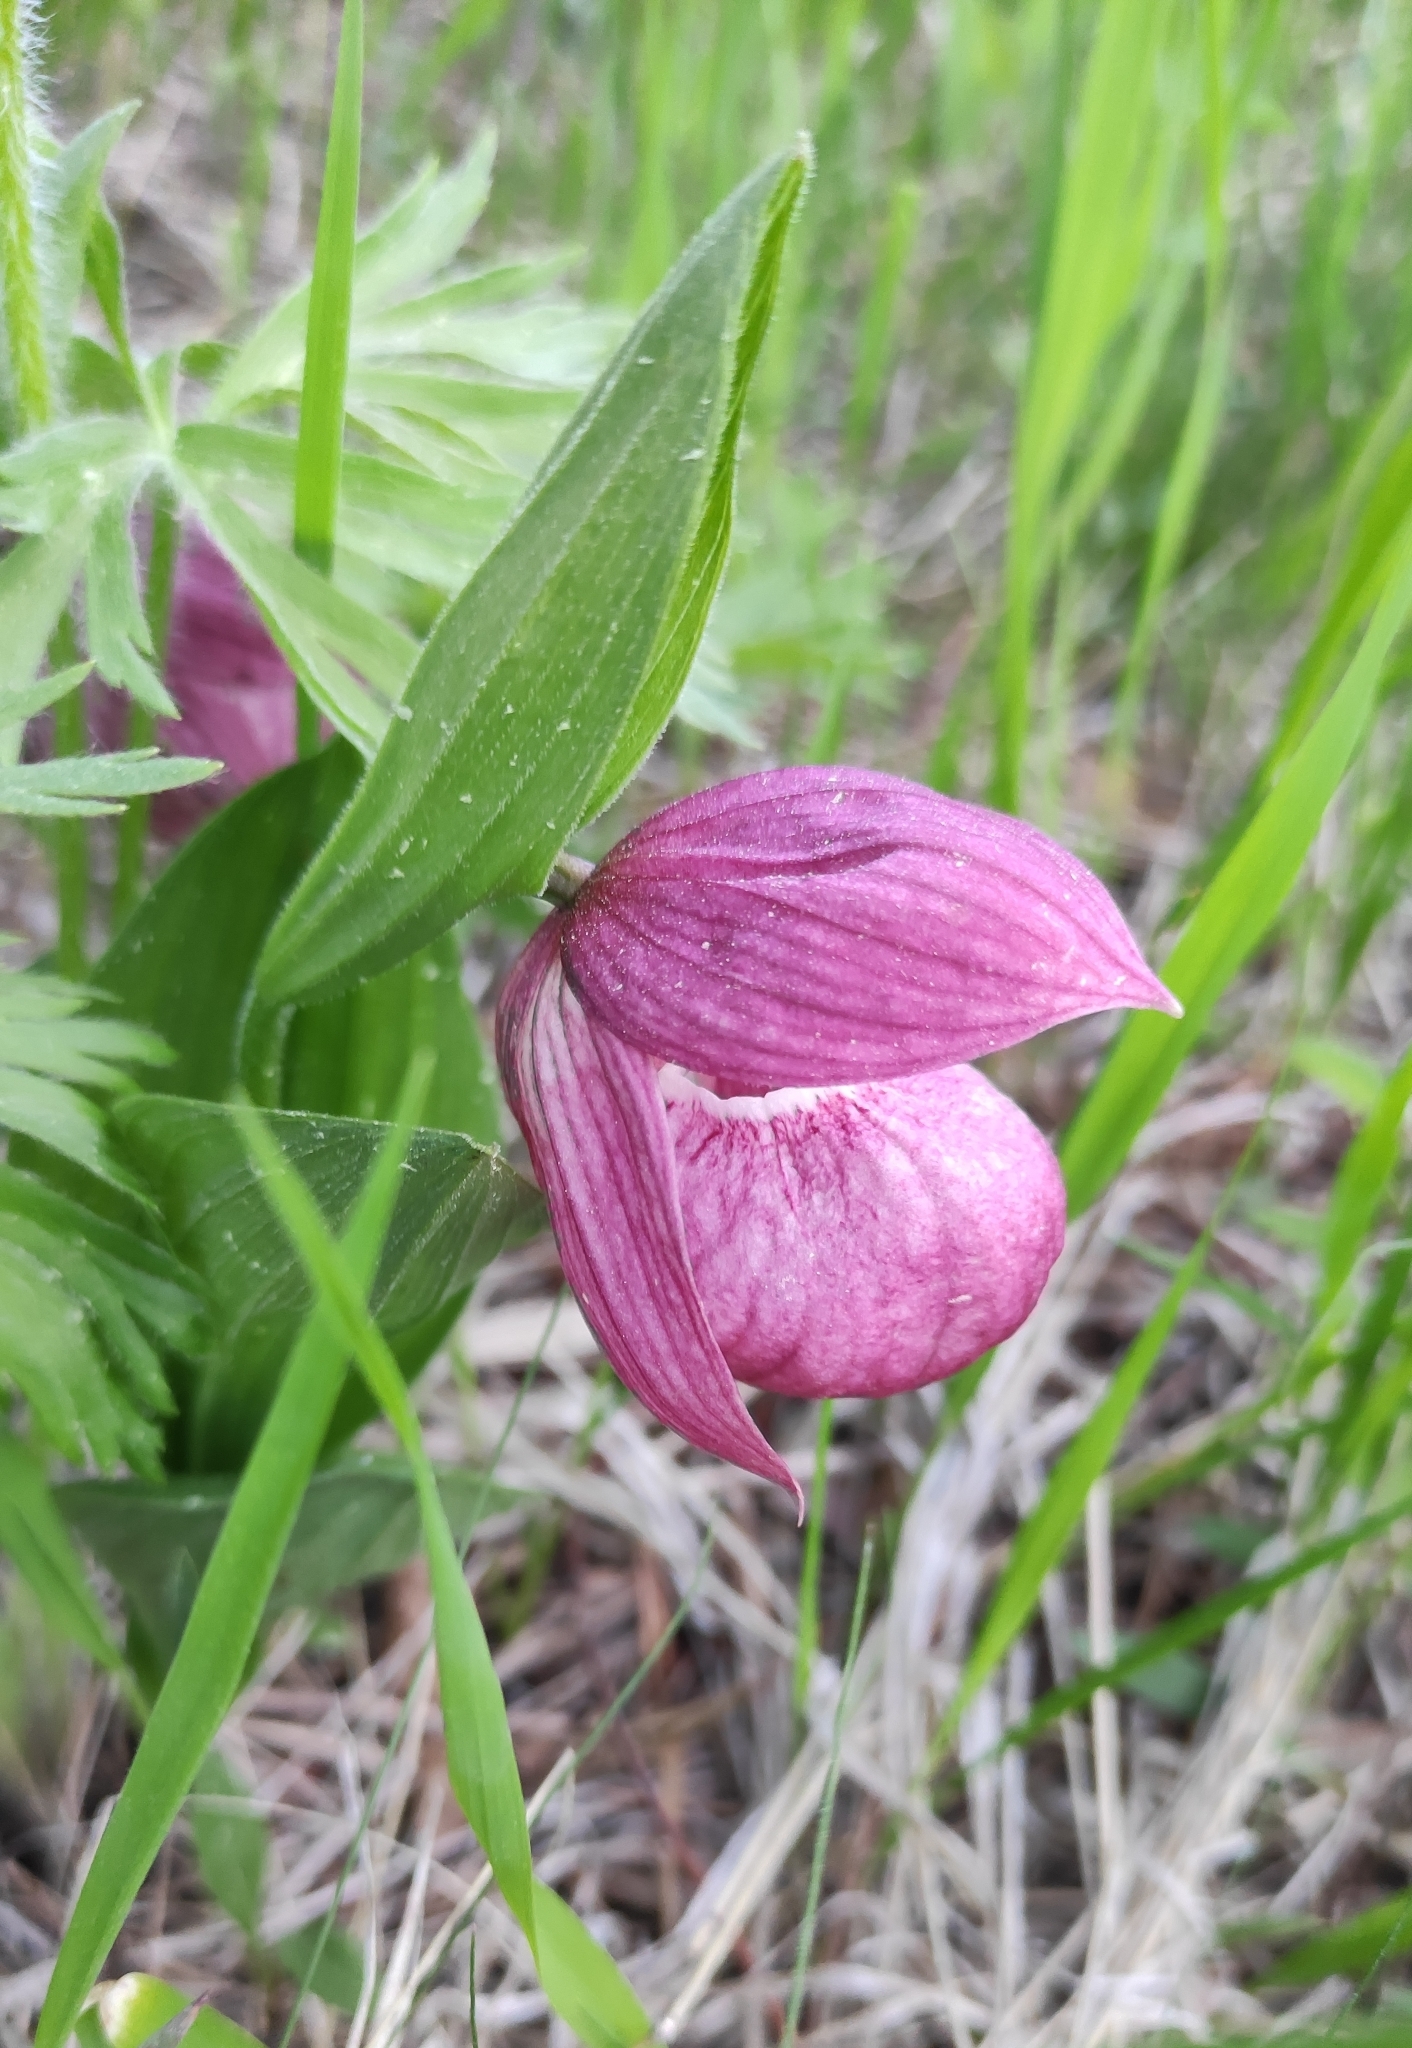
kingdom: Plantae
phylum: Tracheophyta
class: Liliopsida
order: Asparagales
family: Orchidaceae
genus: Cypripedium
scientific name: Cypripedium macranthos
